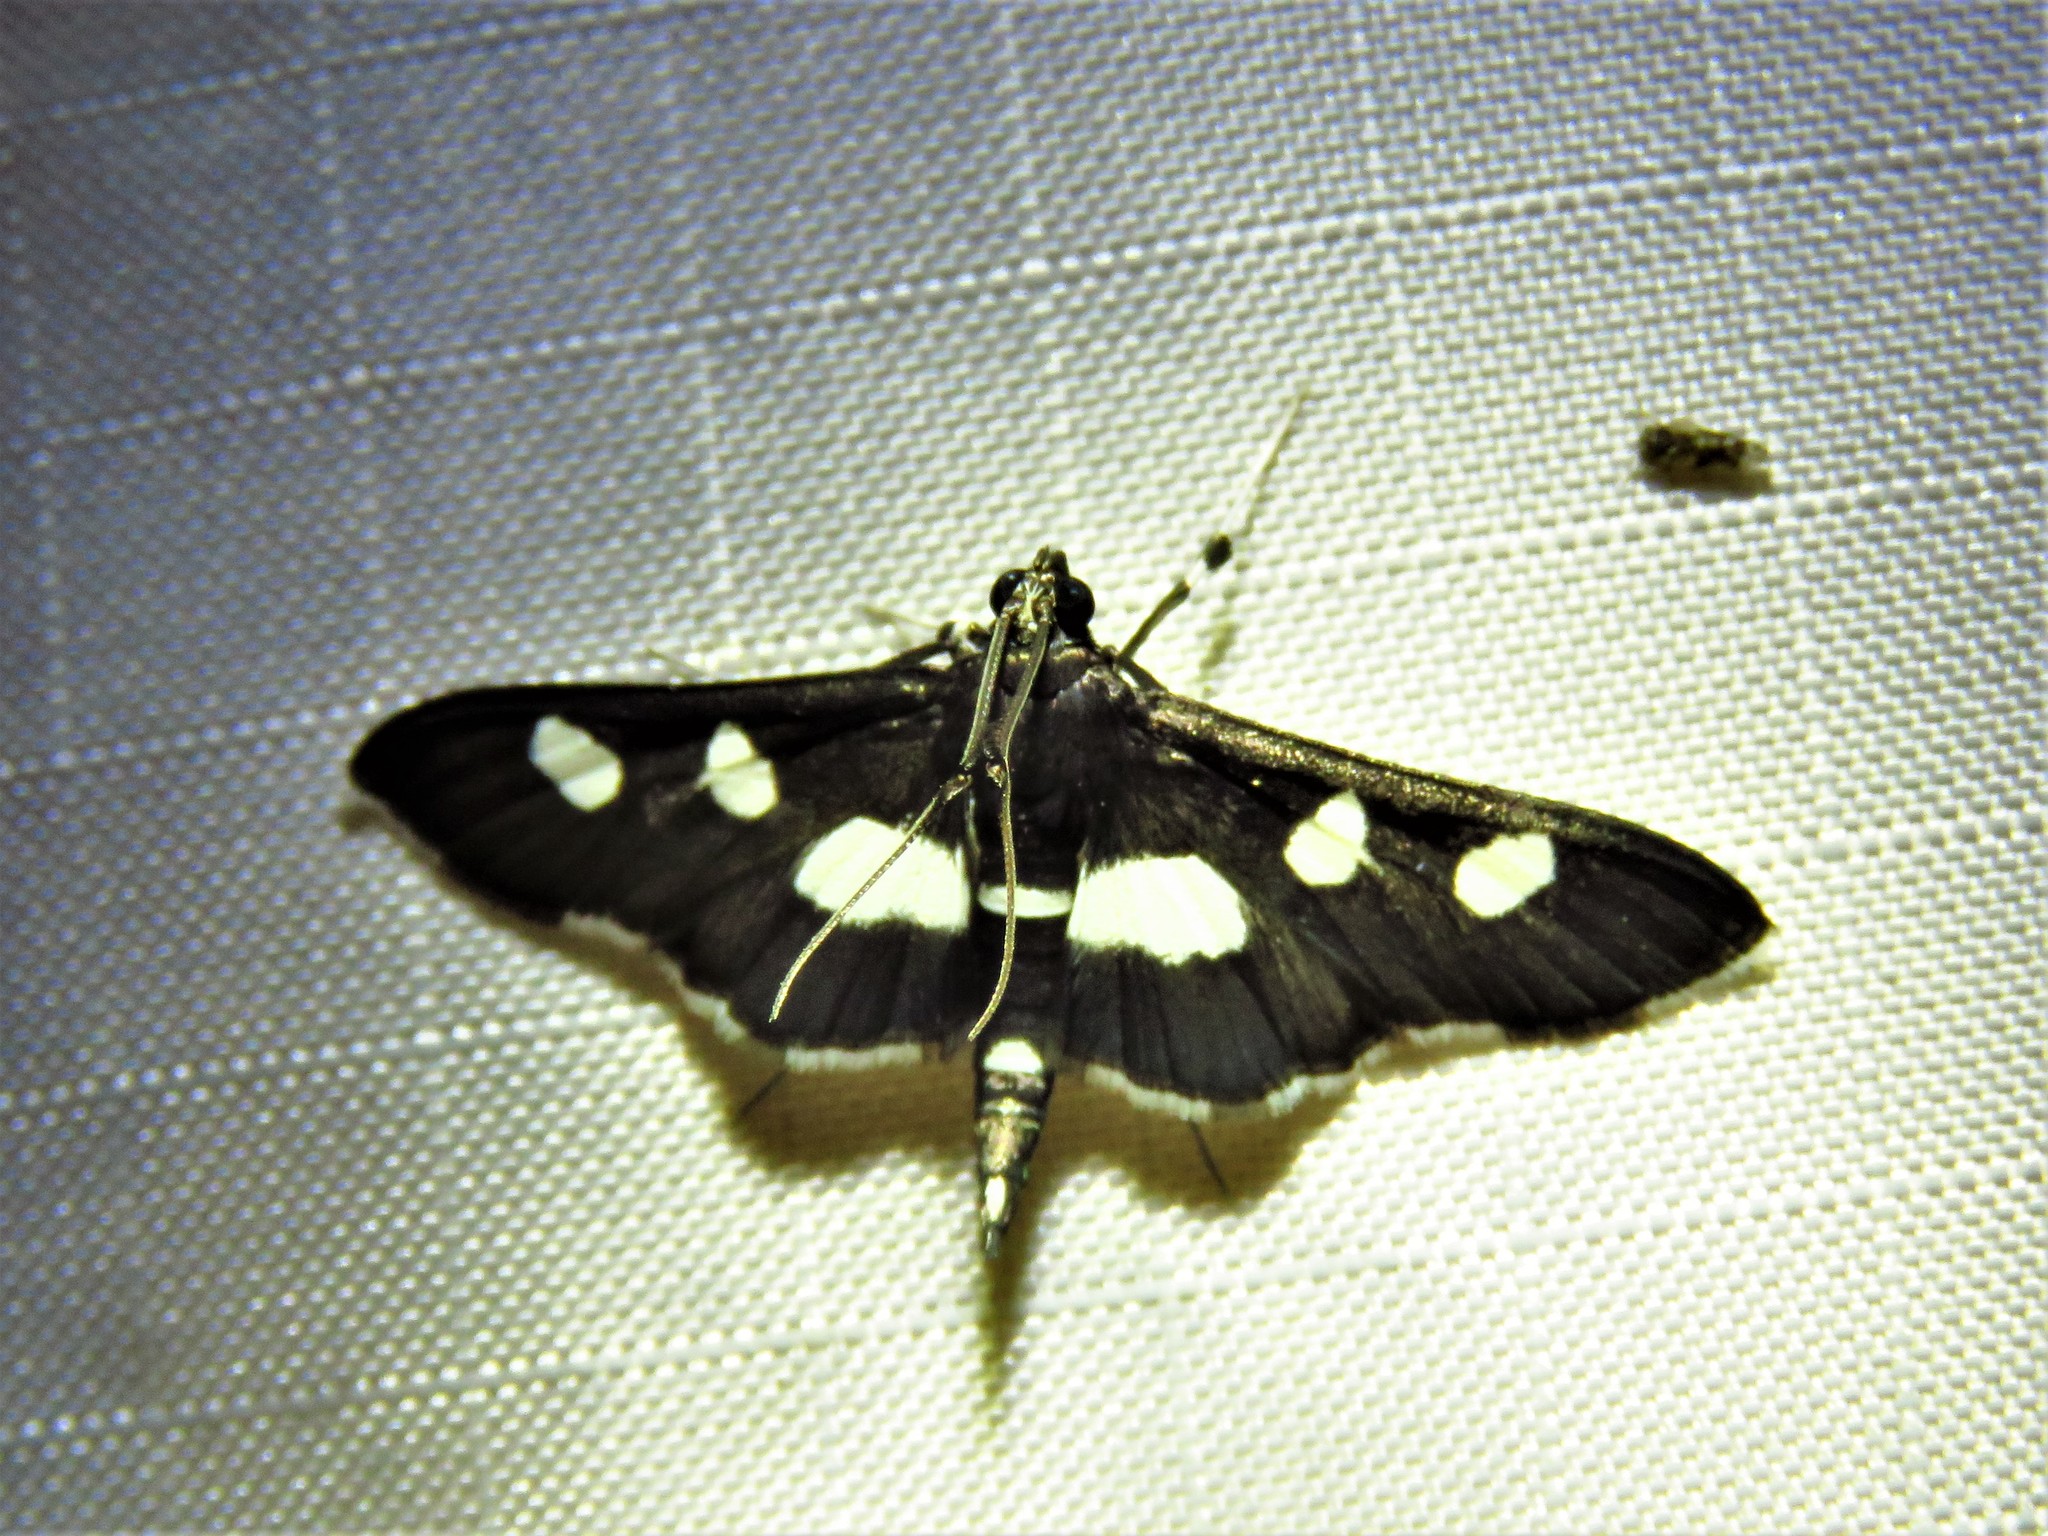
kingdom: Animalia
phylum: Arthropoda
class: Insecta
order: Lepidoptera
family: Crambidae
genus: Desmia
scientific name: Desmia
